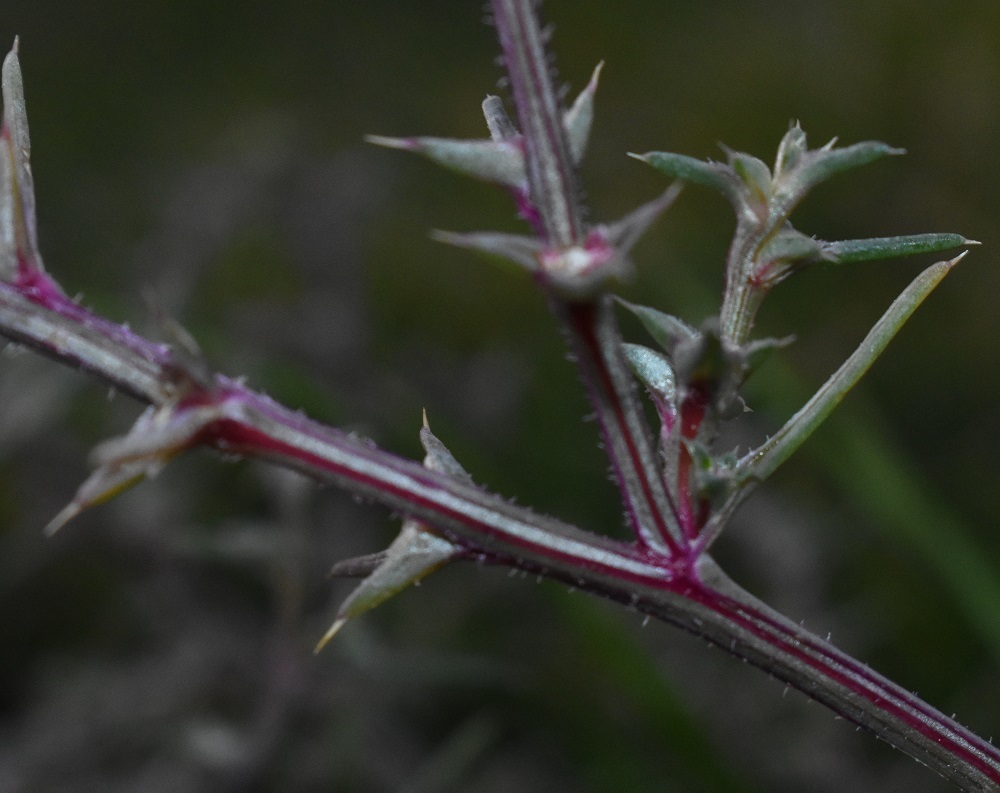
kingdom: Plantae
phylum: Tracheophyta
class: Magnoliopsida
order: Caryophyllales
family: Amaranthaceae
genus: Salsola
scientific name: Salsola tragus
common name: Prickly russian thistle
